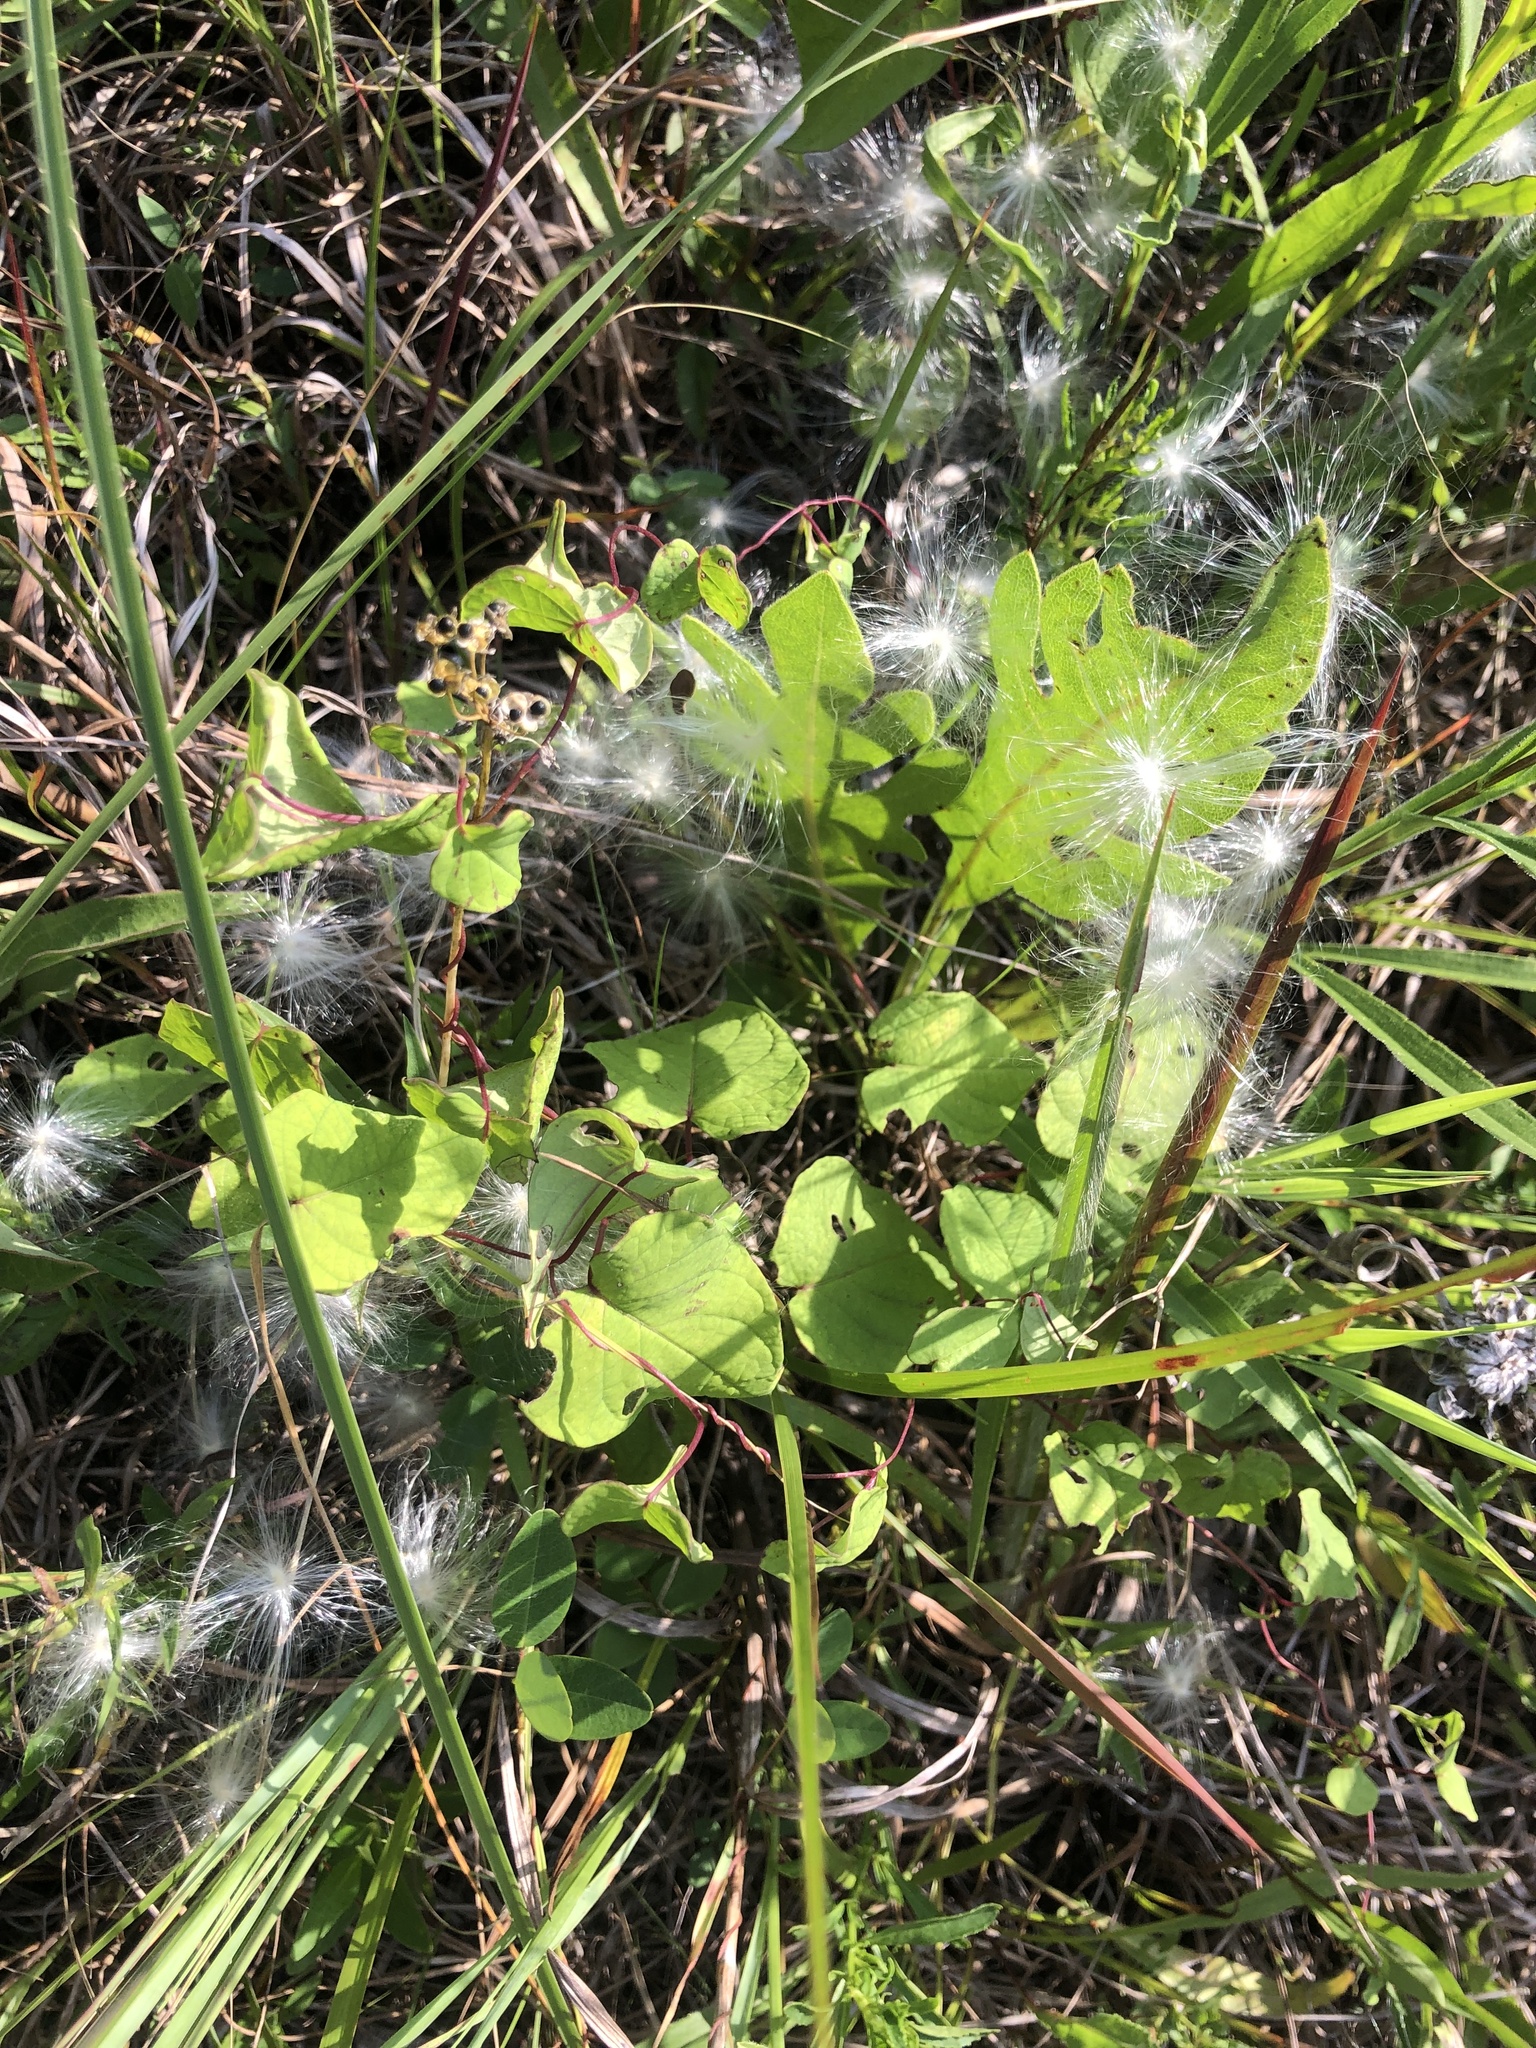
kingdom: Plantae
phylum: Tracheophyta
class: Magnoliopsida
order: Solanales
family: Convolvulaceae
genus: Ipomoea
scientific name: Ipomoea pandurata
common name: Man-of-the-earth
